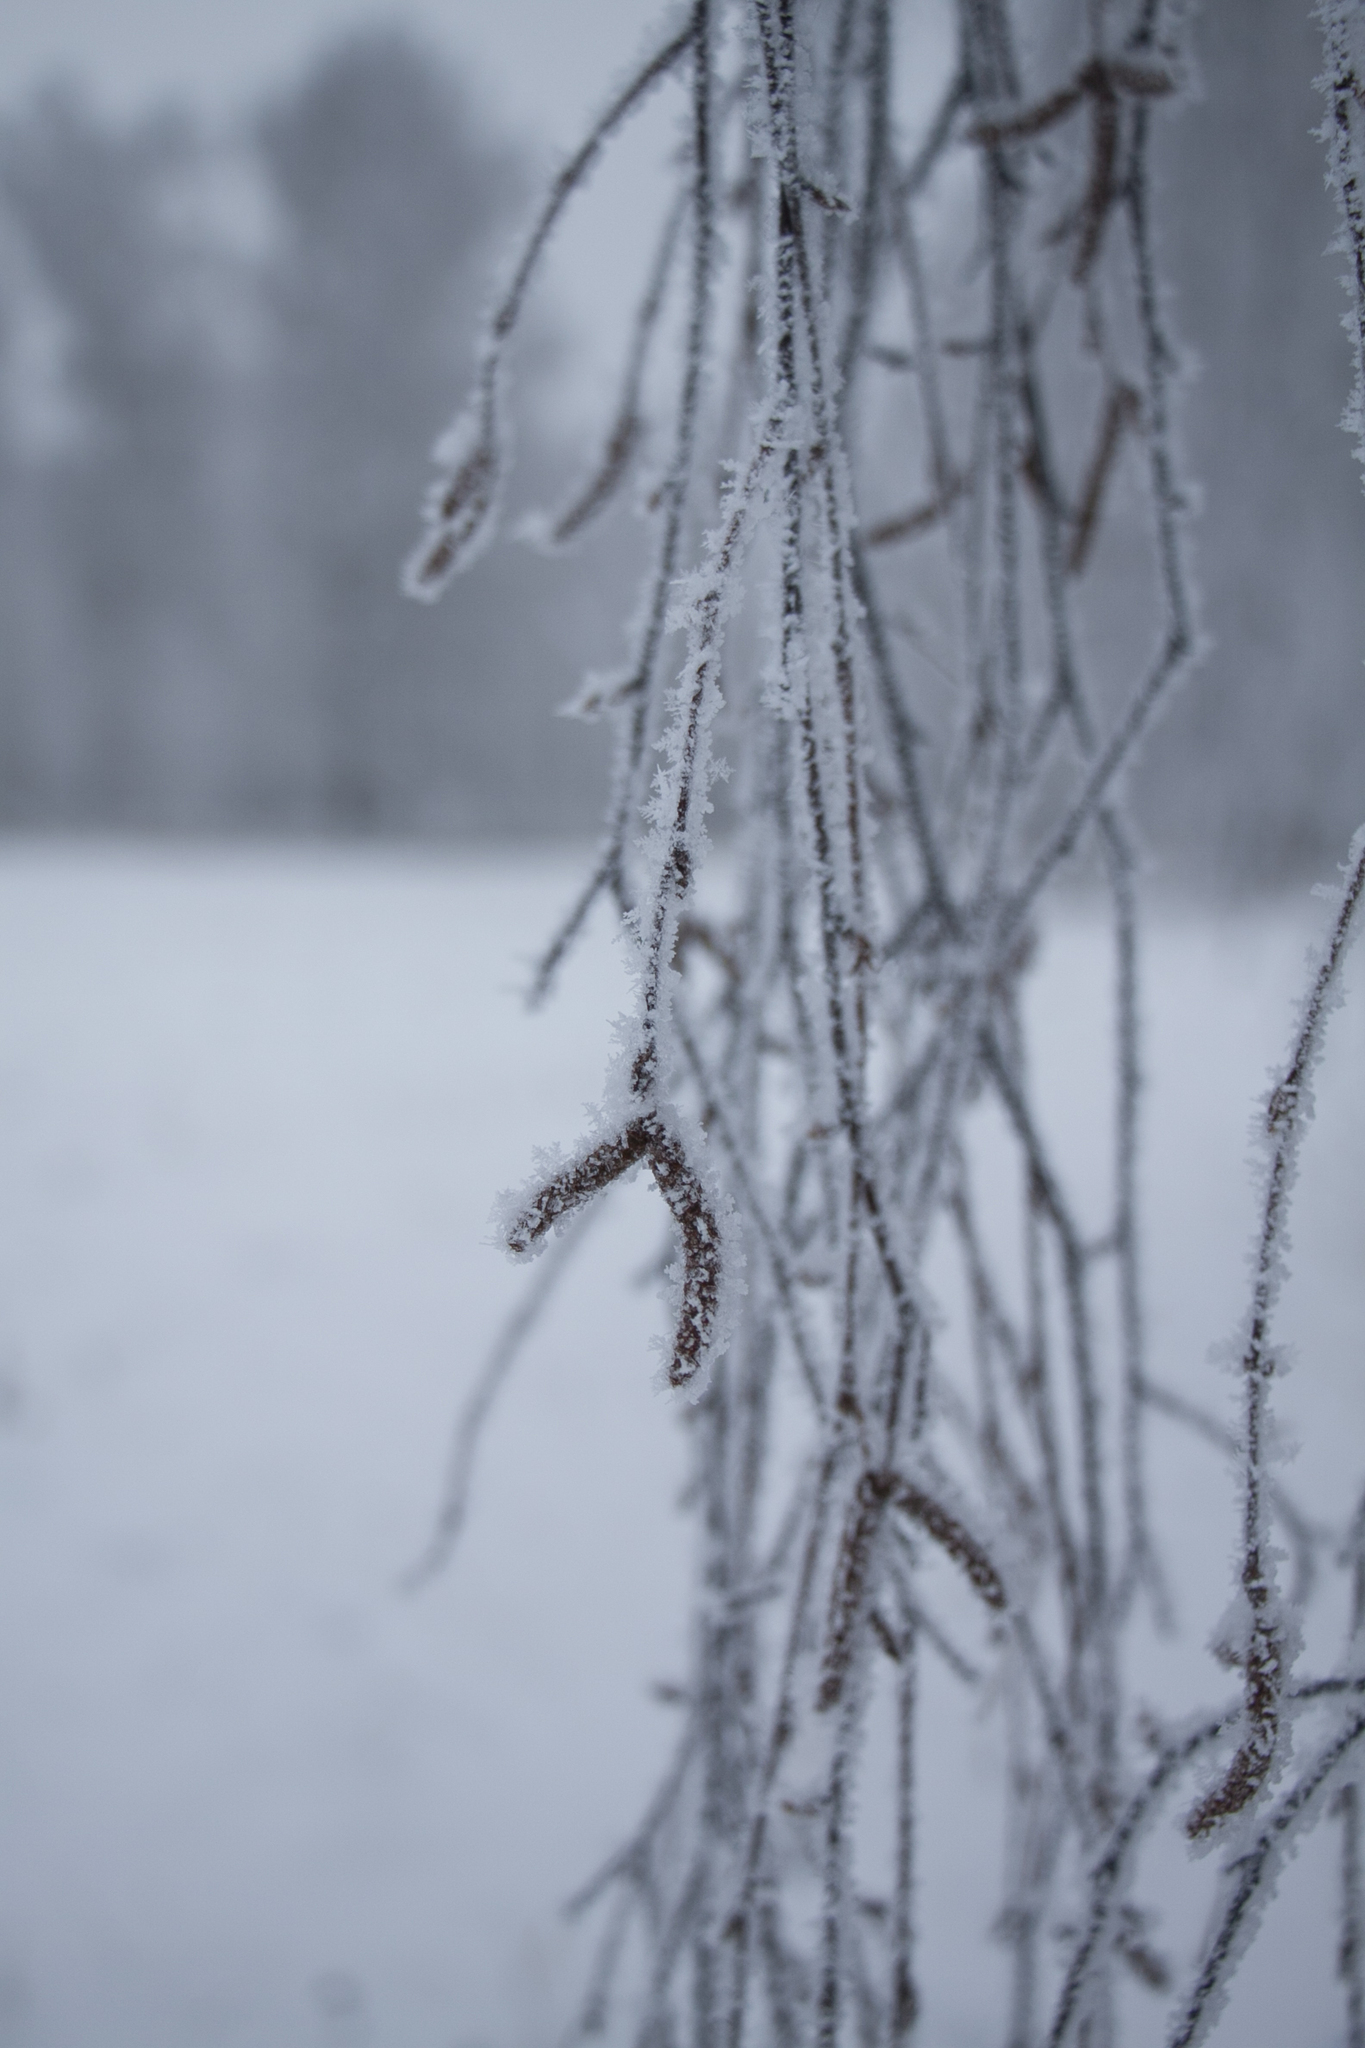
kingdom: Plantae
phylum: Tracheophyta
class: Magnoliopsida
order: Fagales
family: Betulaceae
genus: Betula
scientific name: Betula pendula
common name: Silver birch
